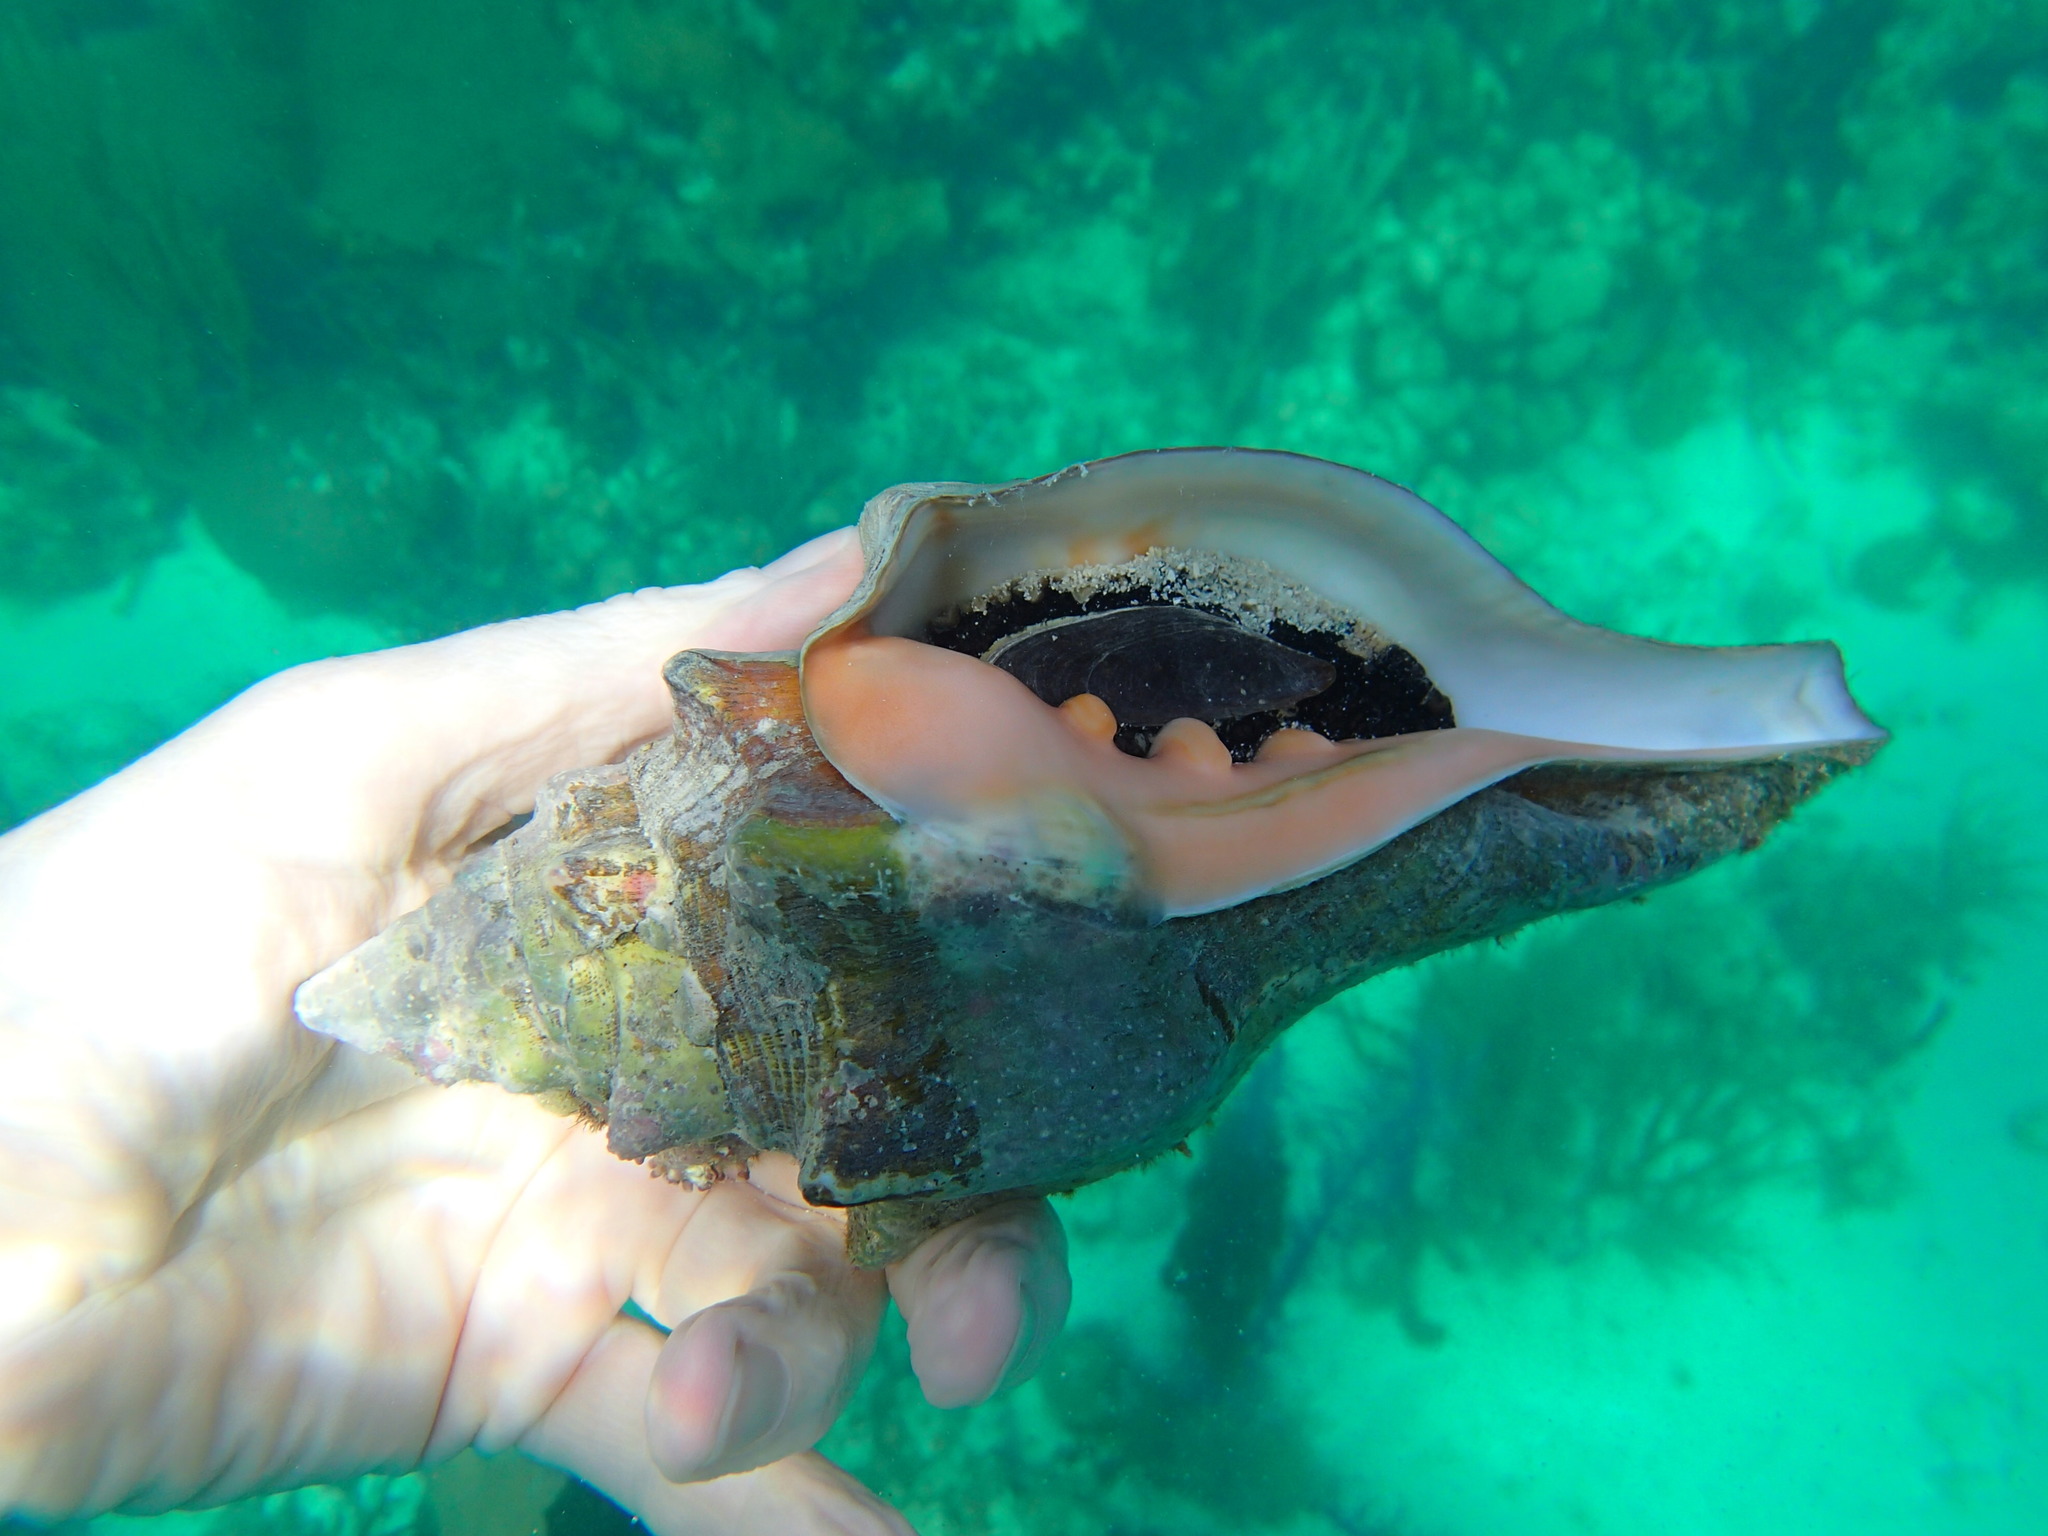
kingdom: Animalia
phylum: Mollusca
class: Gastropoda
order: Neogastropoda
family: Turbinellidae
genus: Turbinella
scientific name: Turbinella angulata
